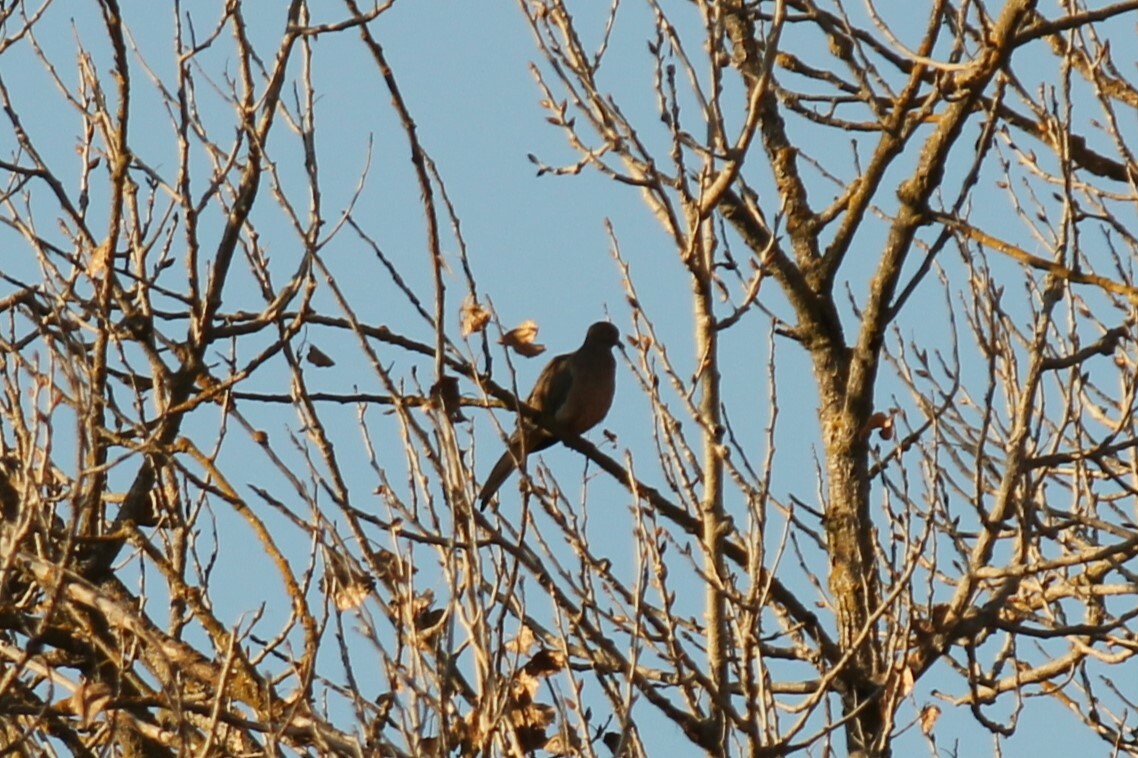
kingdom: Animalia
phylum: Chordata
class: Aves
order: Columbiformes
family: Columbidae
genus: Zenaida
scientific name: Zenaida macroura
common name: Mourning dove
